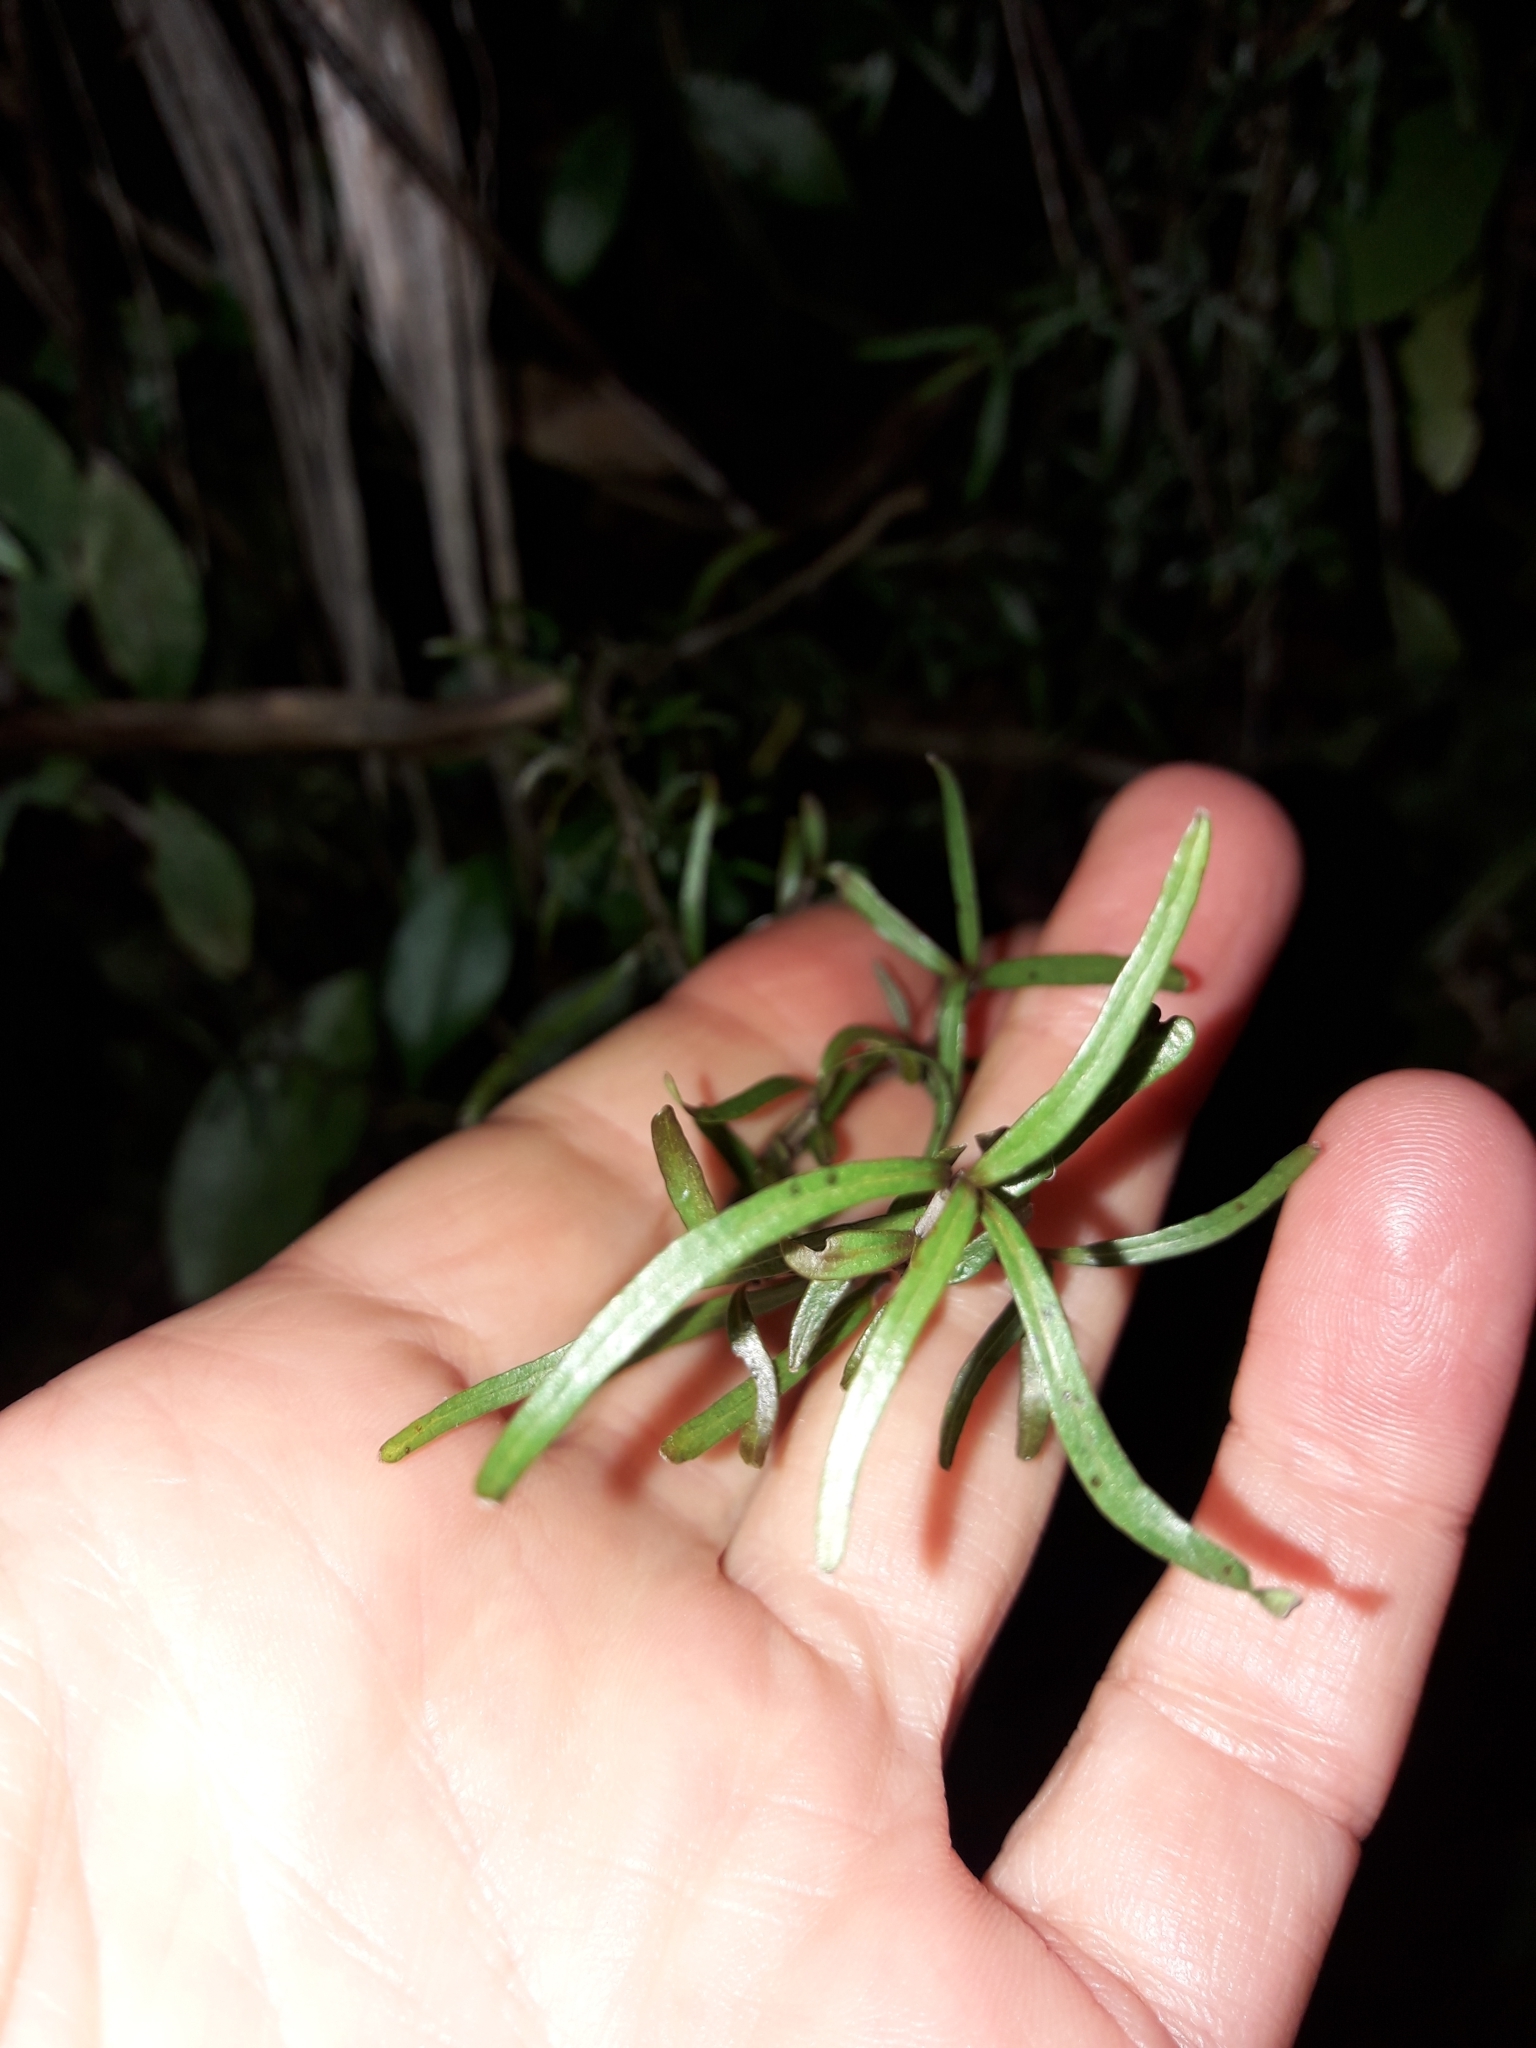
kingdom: Plantae
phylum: Tracheophyta
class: Magnoliopsida
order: Gentianales
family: Rubiaceae
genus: Coprosma
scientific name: Coprosma linariifolia
